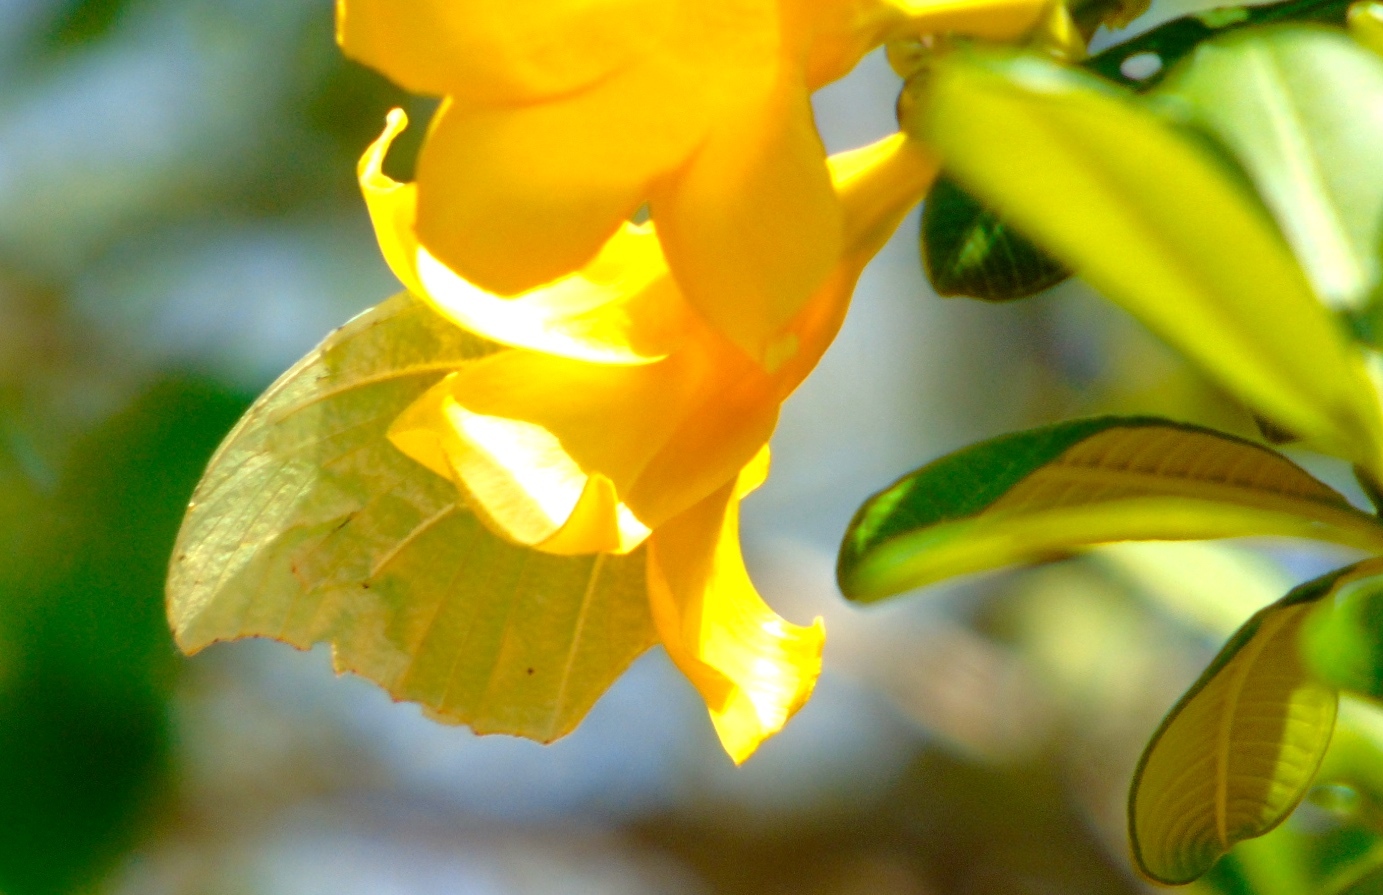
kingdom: Animalia
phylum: Arthropoda
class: Insecta
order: Lepidoptera
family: Pieridae
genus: Anteos
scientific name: Anteos clorinde
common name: White angled sulphur
